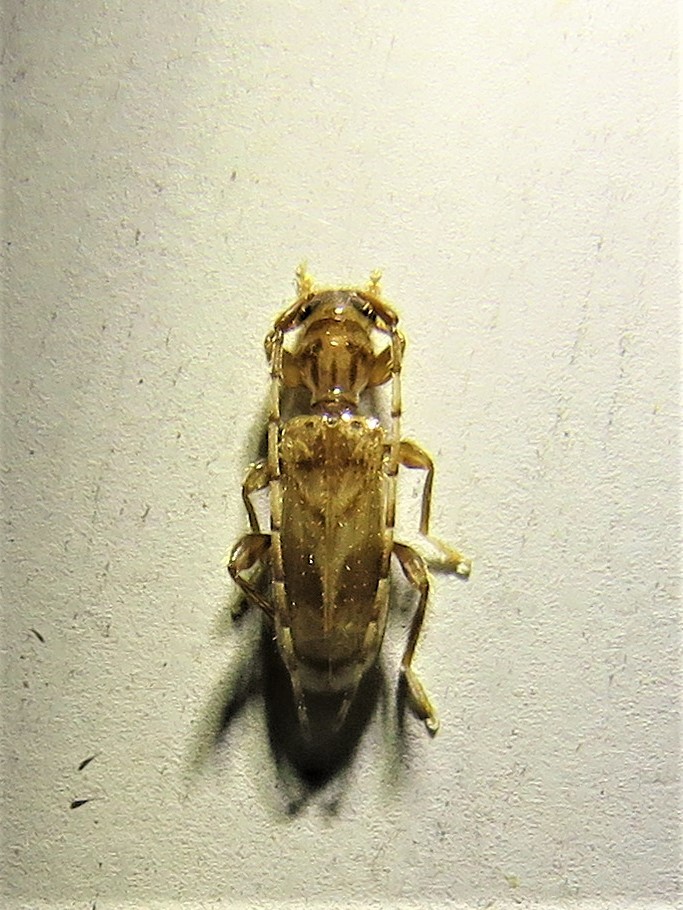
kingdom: Animalia
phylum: Arthropoda
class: Insecta
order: Coleoptera
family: Cerambycidae
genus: Obrium
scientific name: Obrium maculatum
